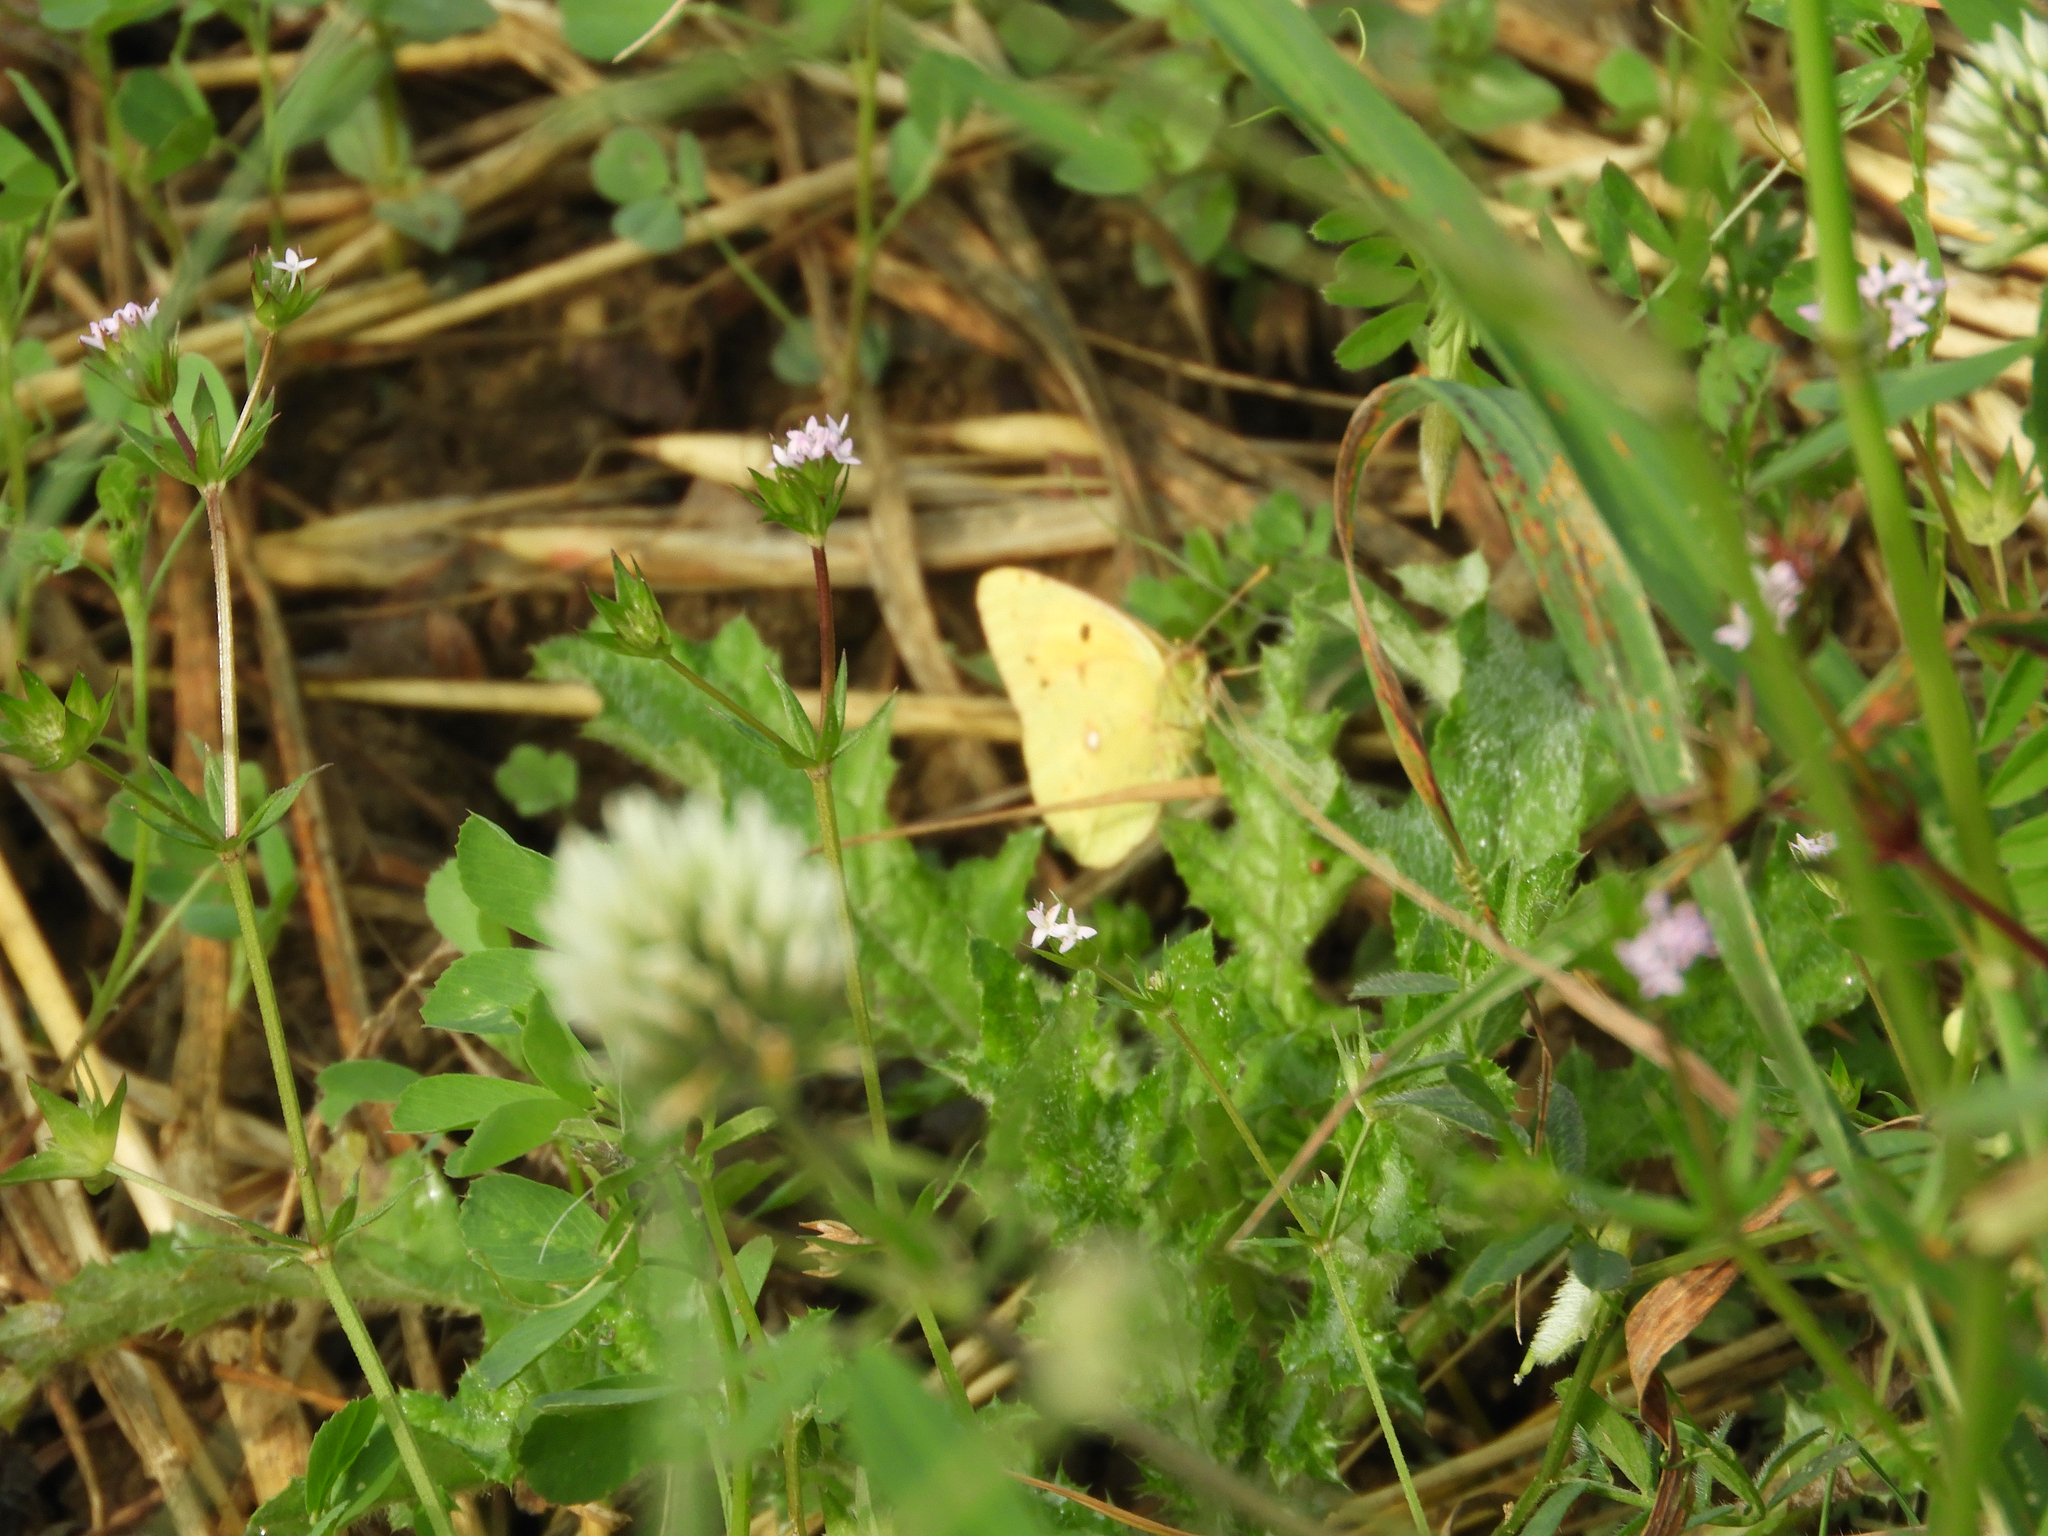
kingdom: Animalia
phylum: Arthropoda
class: Insecta
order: Lepidoptera
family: Pieridae
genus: Colias
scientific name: Colias croceus
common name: Clouded yellow
